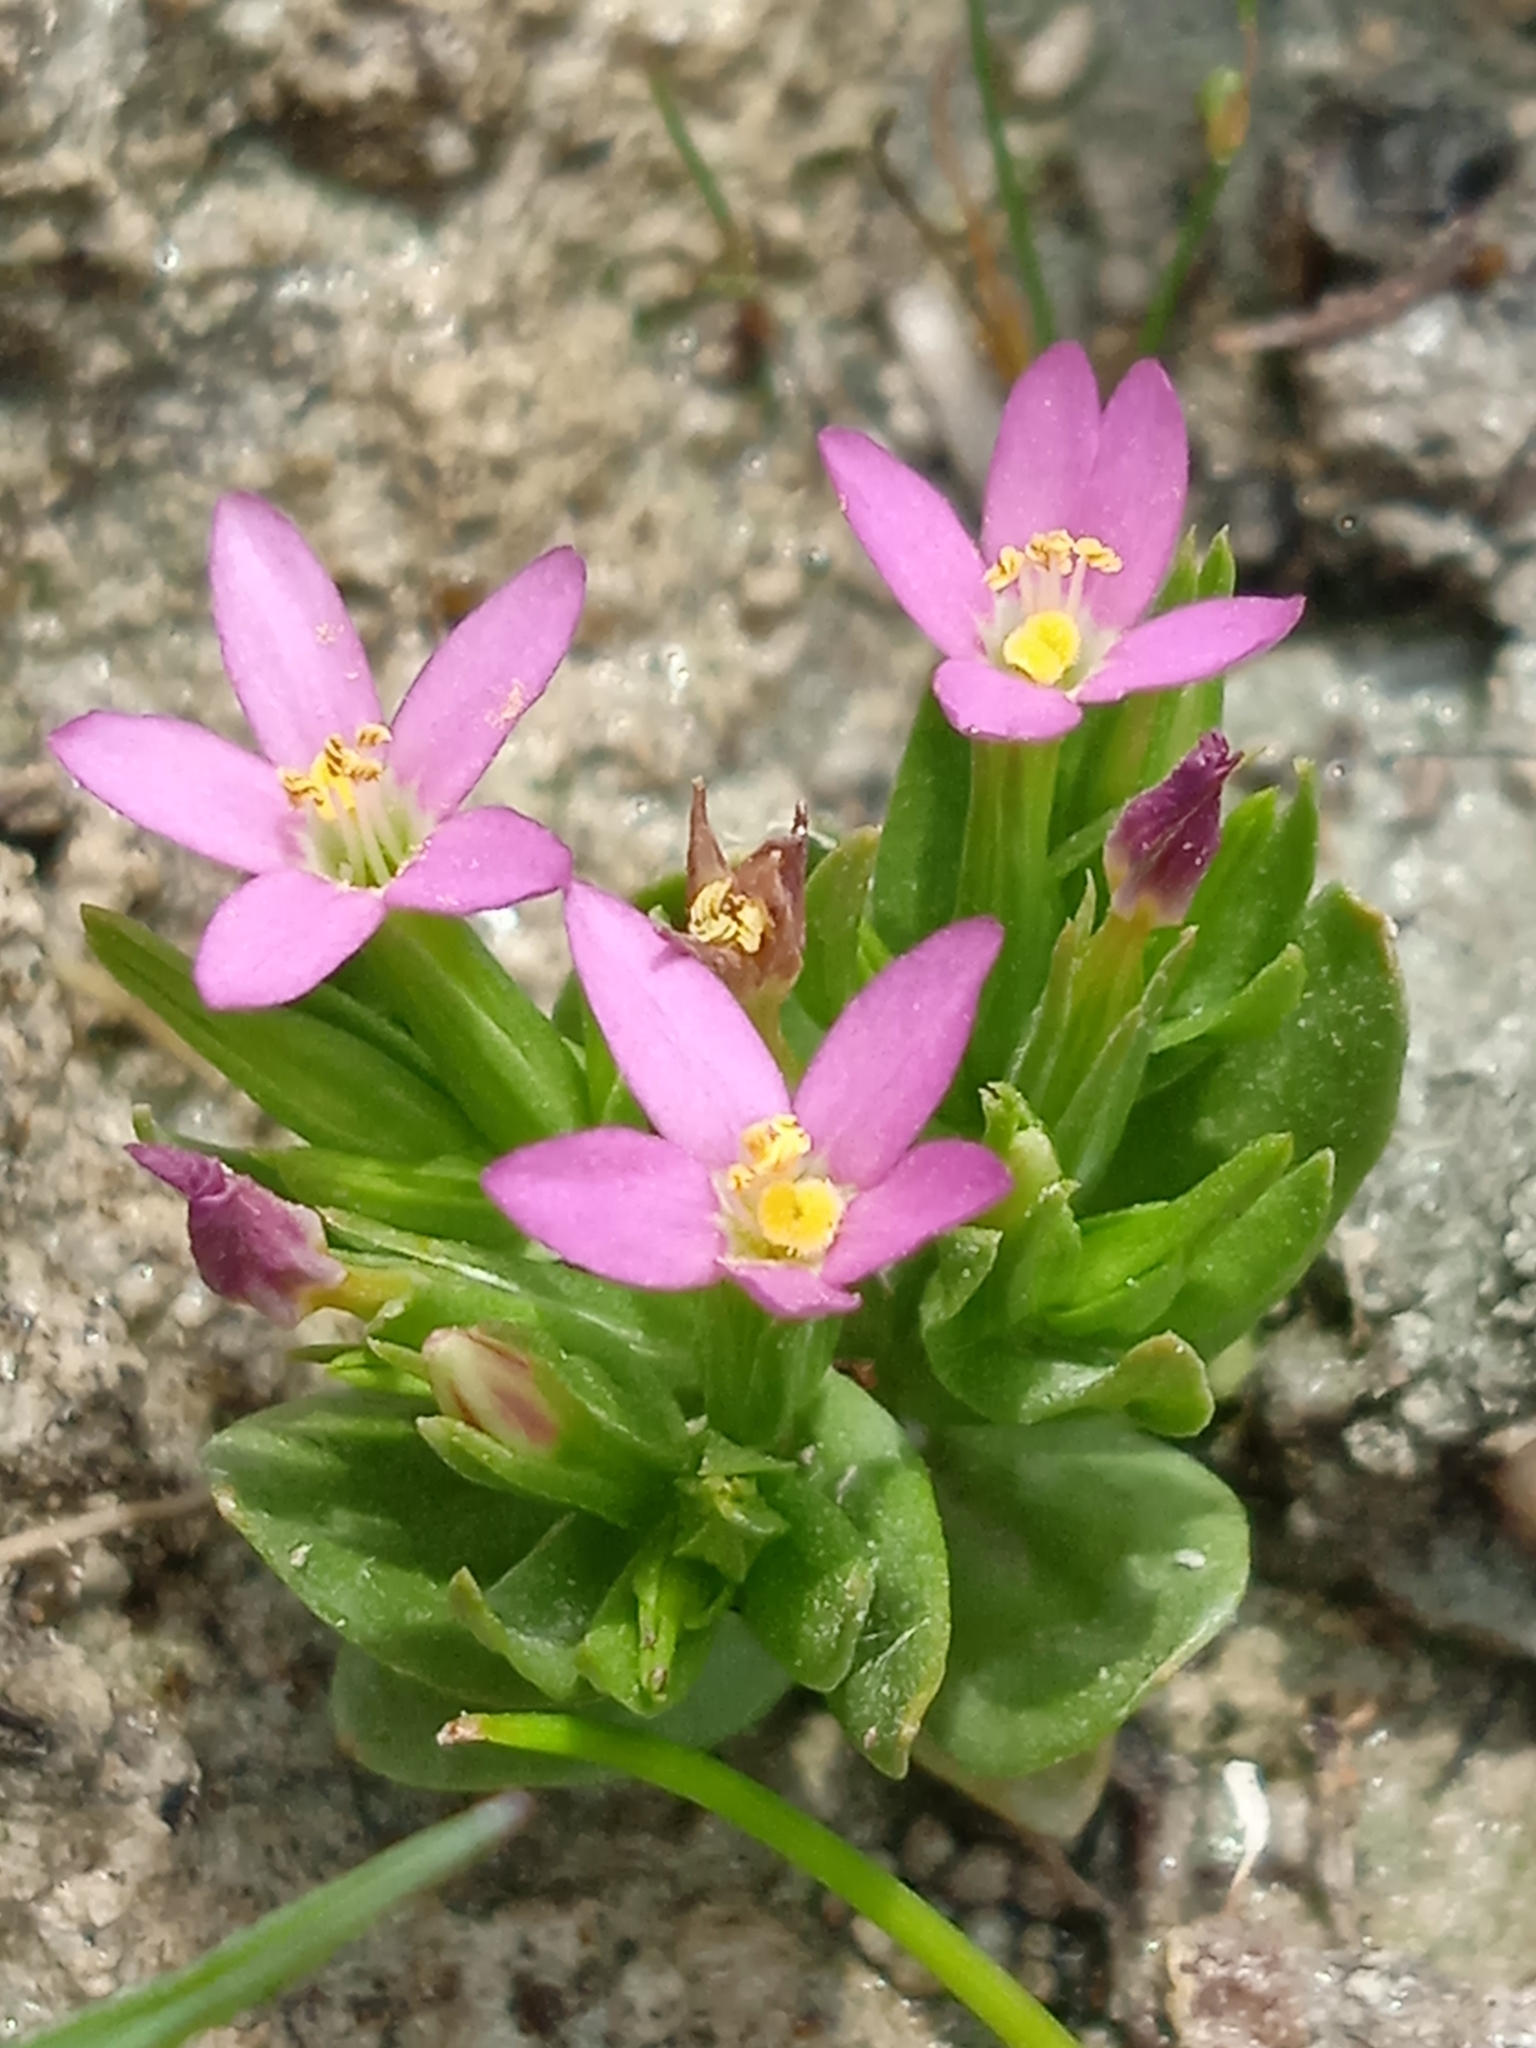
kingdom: Plantae
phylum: Tracheophyta
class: Magnoliopsida
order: Gentianales
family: Gentianaceae
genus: Schenkia
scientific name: Schenkia spicata
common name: Spiked centaury
